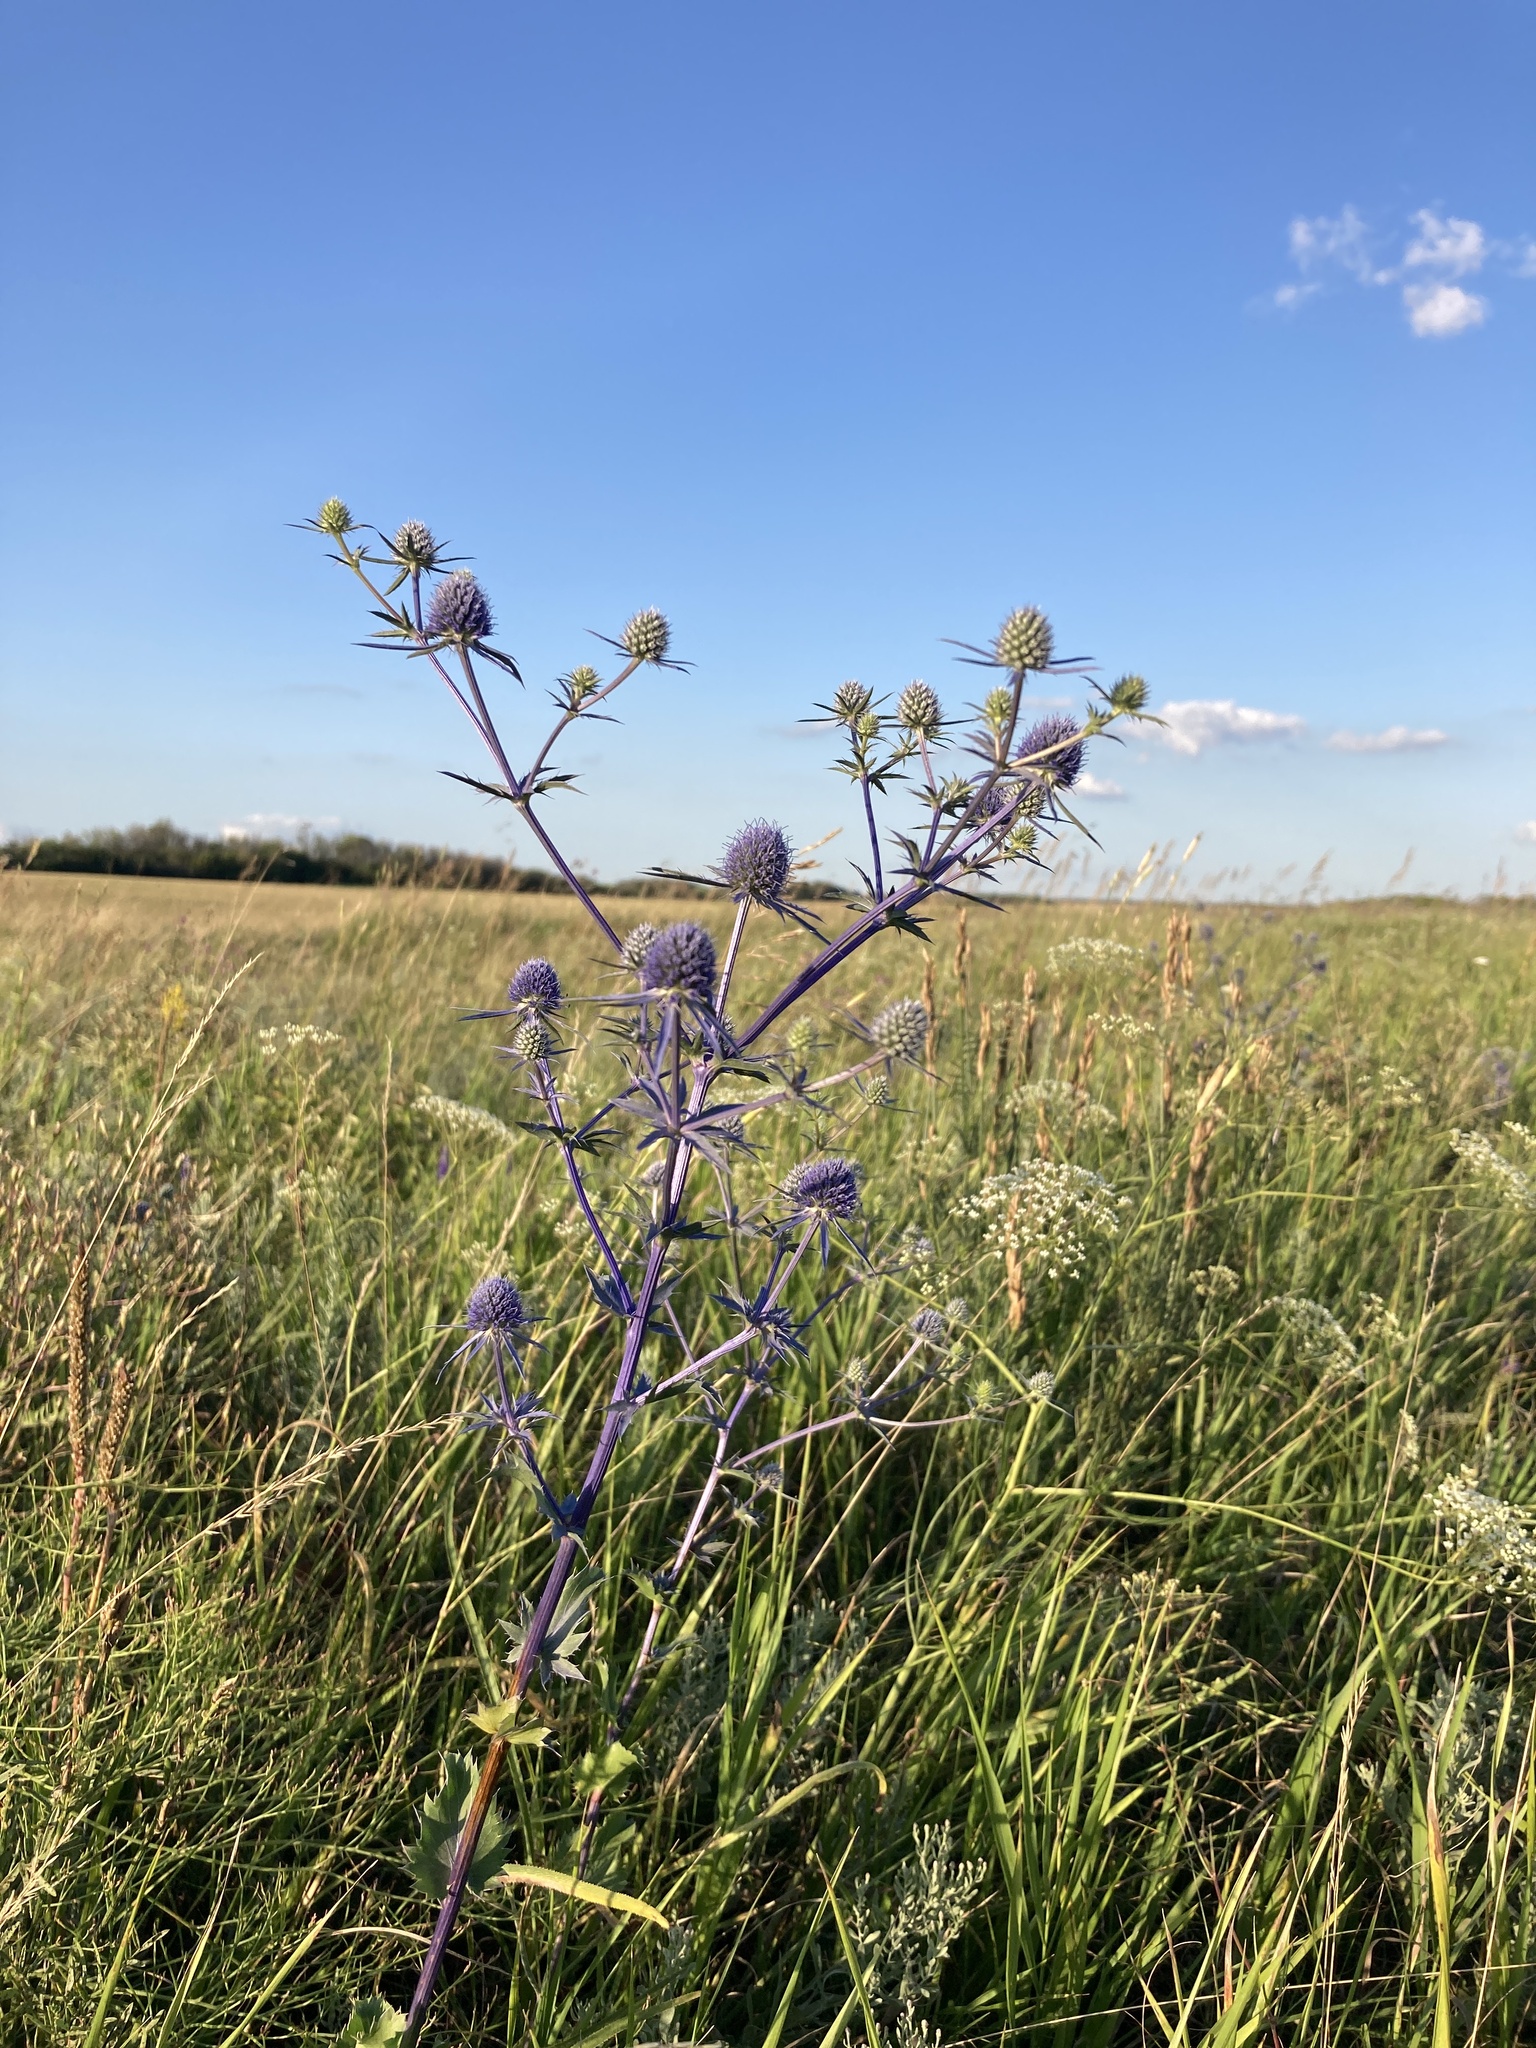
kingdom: Plantae
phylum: Tracheophyta
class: Magnoliopsida
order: Apiales
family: Apiaceae
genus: Eryngium
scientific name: Eryngium planum
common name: Blue eryngo
